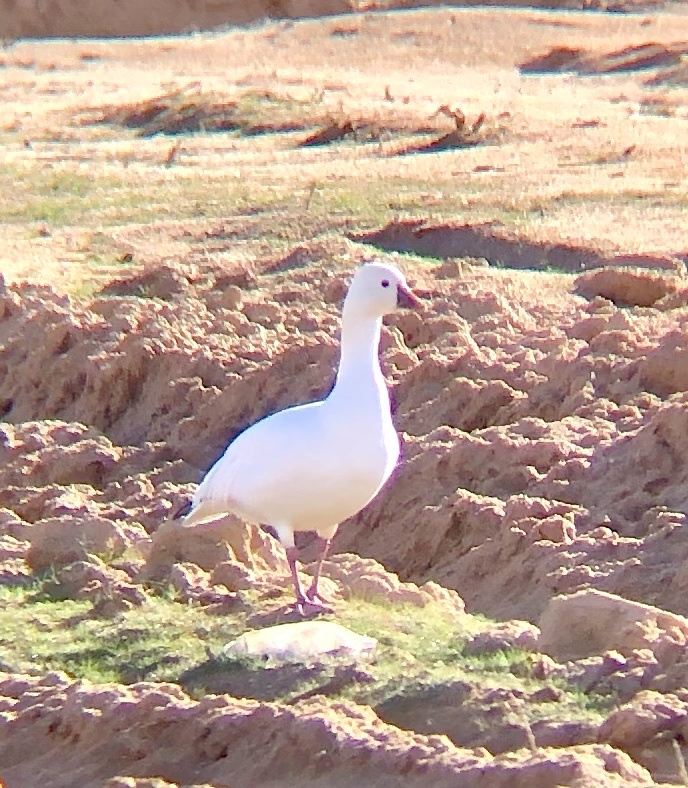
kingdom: Animalia
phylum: Chordata
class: Aves
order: Anseriformes
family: Anatidae
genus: Anser
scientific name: Anser rossii
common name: Ross's goose
